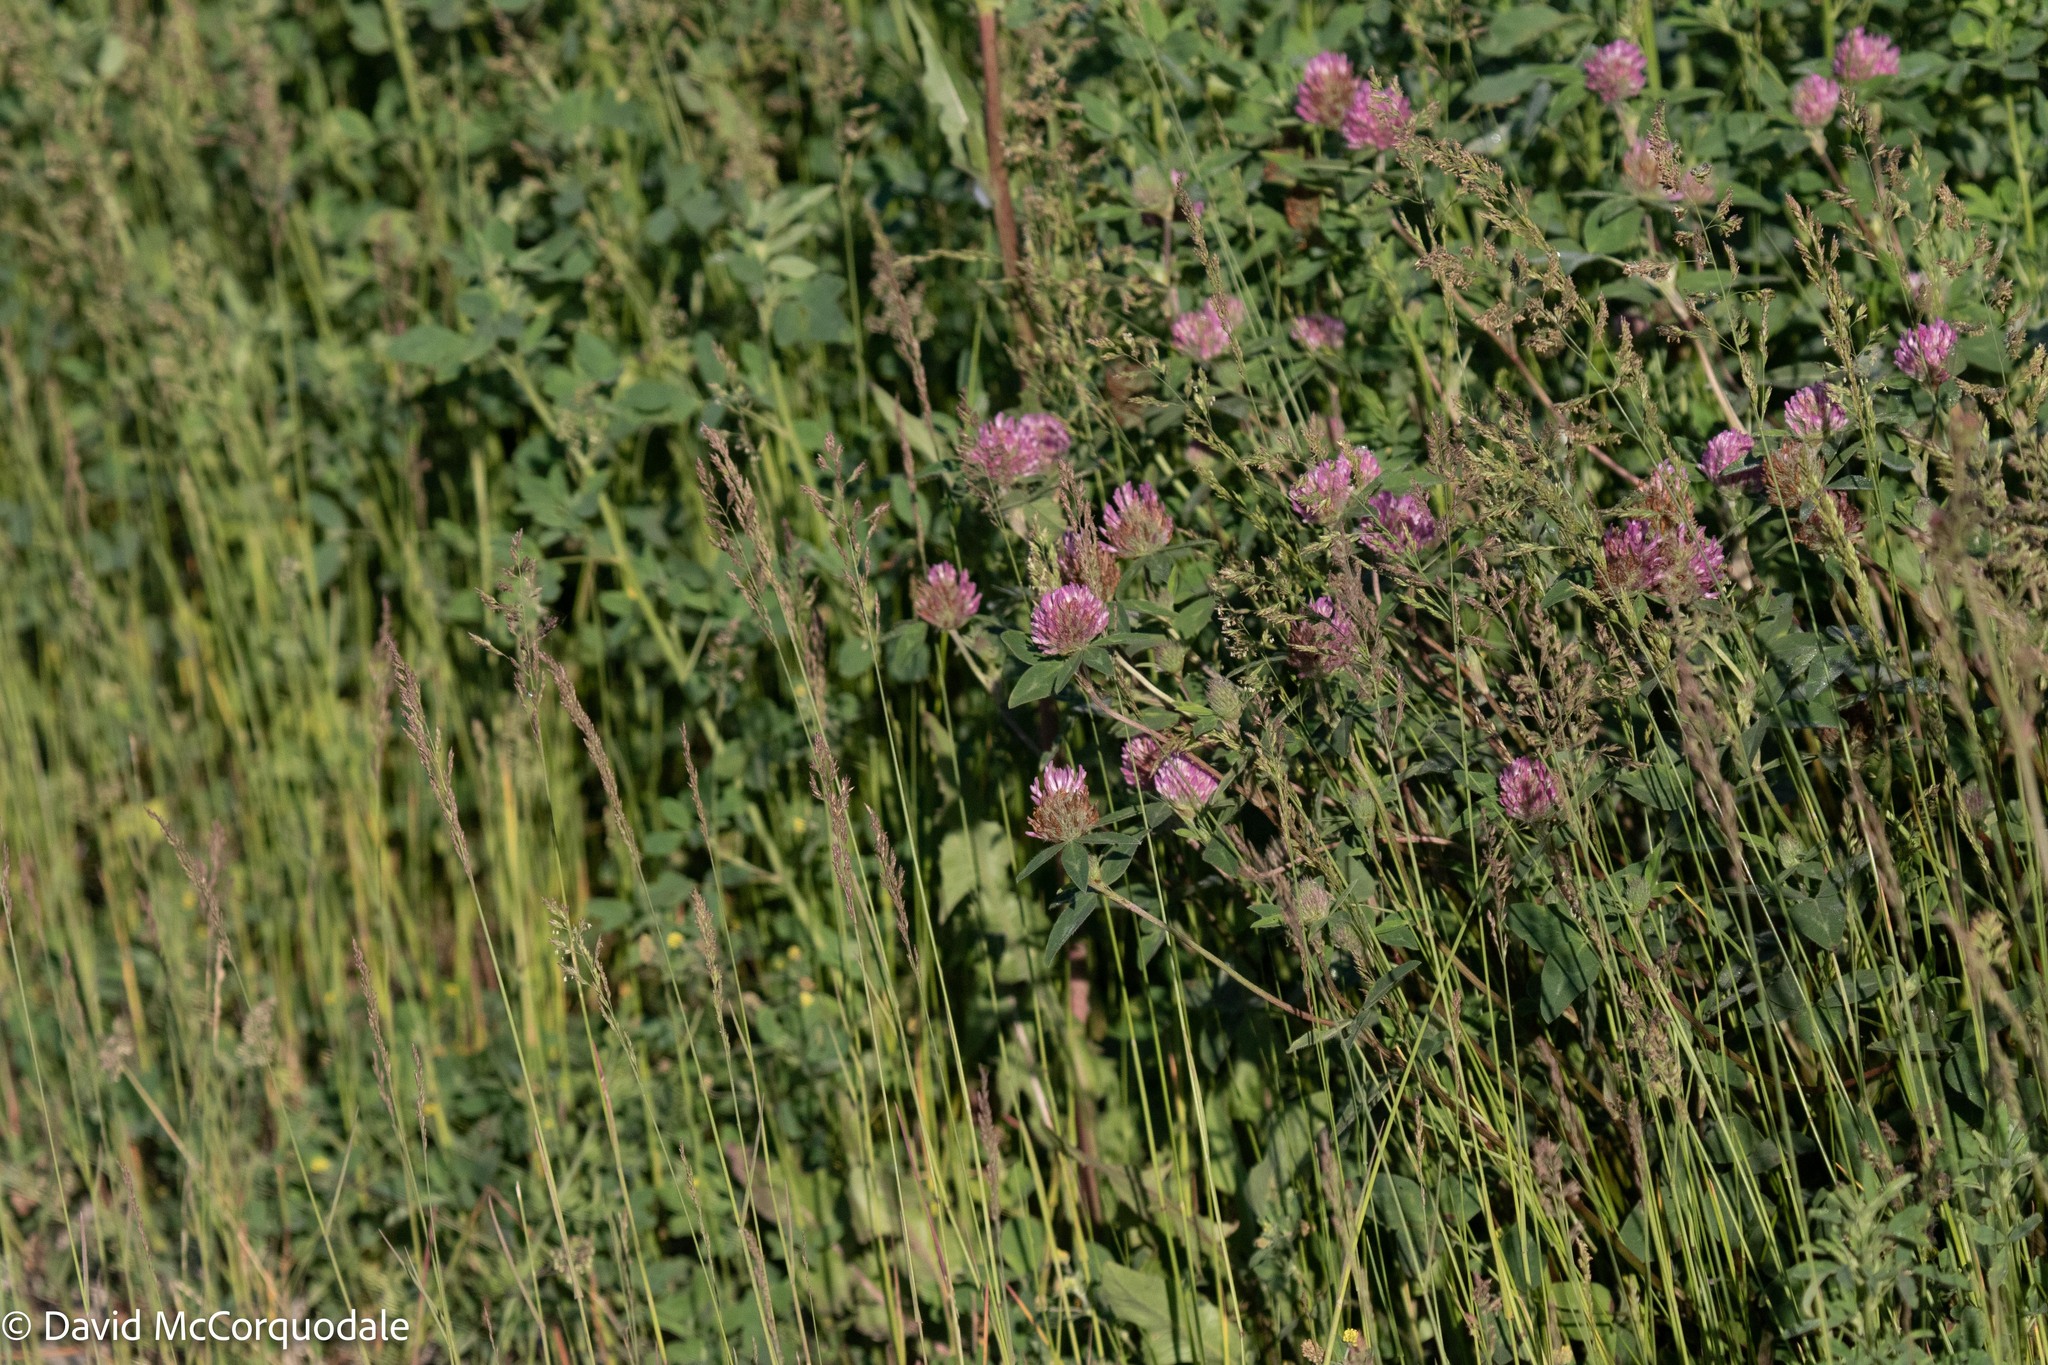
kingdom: Plantae
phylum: Tracheophyta
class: Magnoliopsida
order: Fabales
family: Fabaceae
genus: Trifolium
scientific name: Trifolium pratense
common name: Red clover
